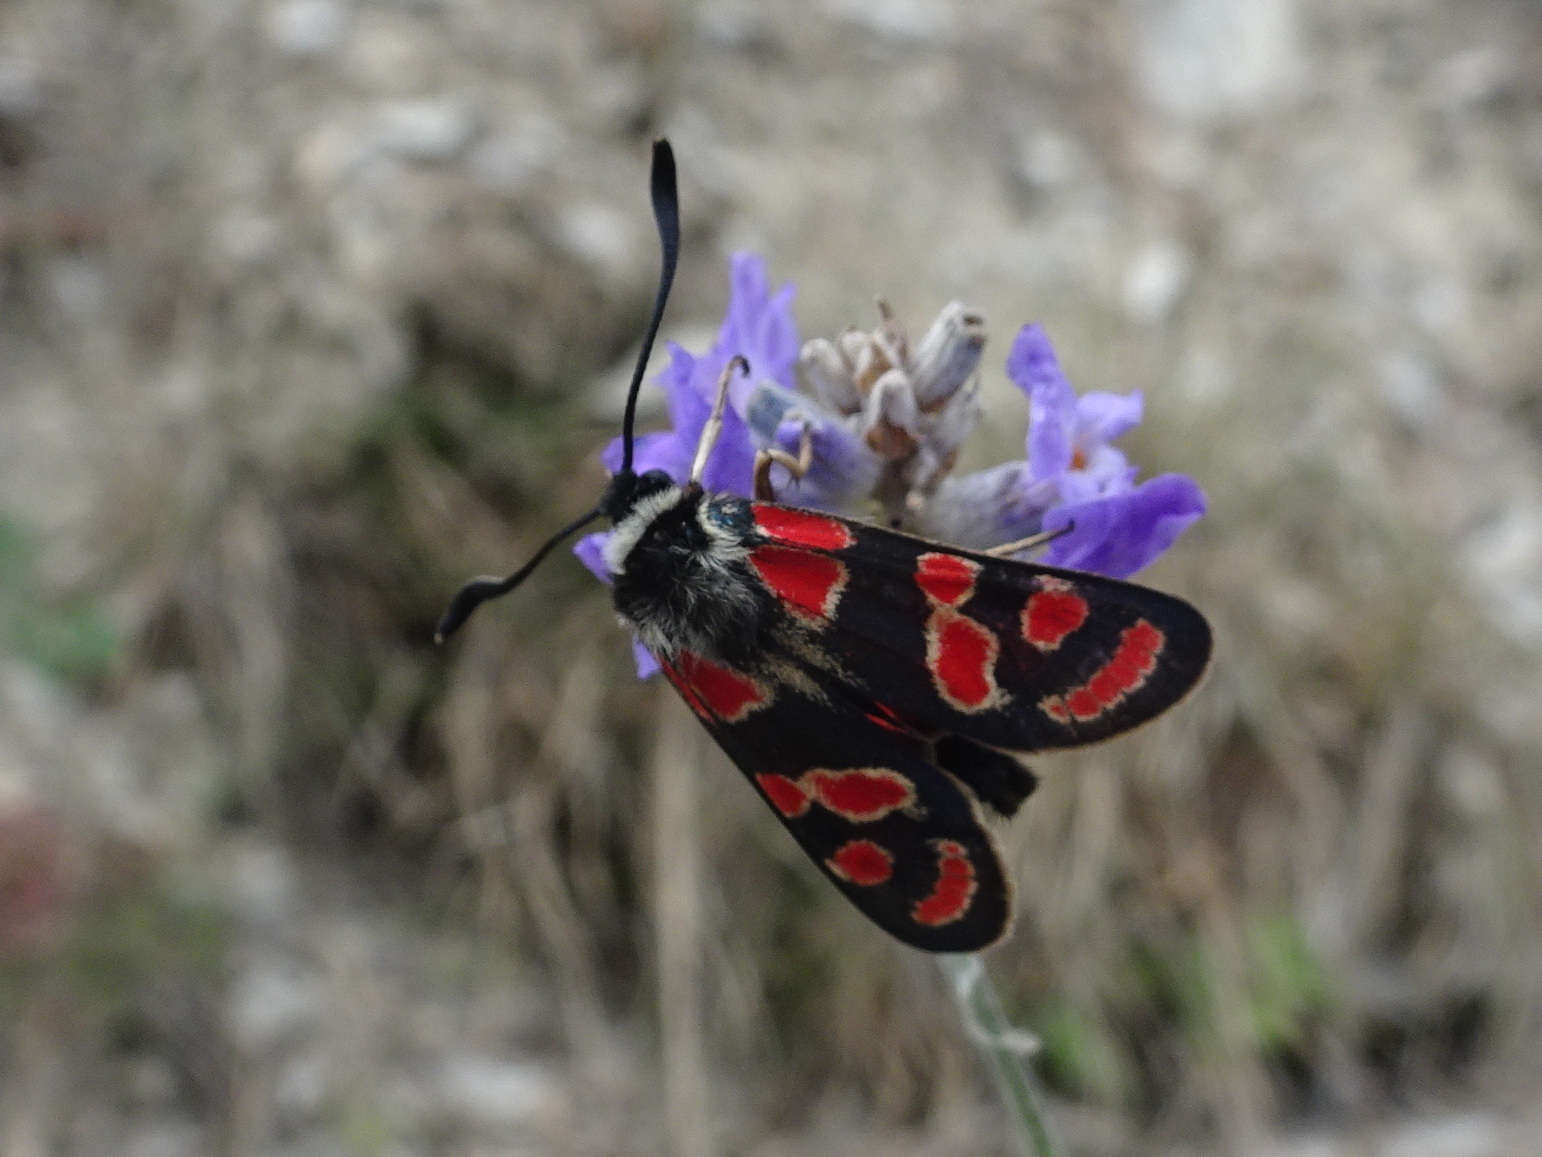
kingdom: Animalia
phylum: Arthropoda
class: Insecta
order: Lepidoptera
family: Zygaenidae
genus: Zygaena
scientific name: Zygaena carniolica
